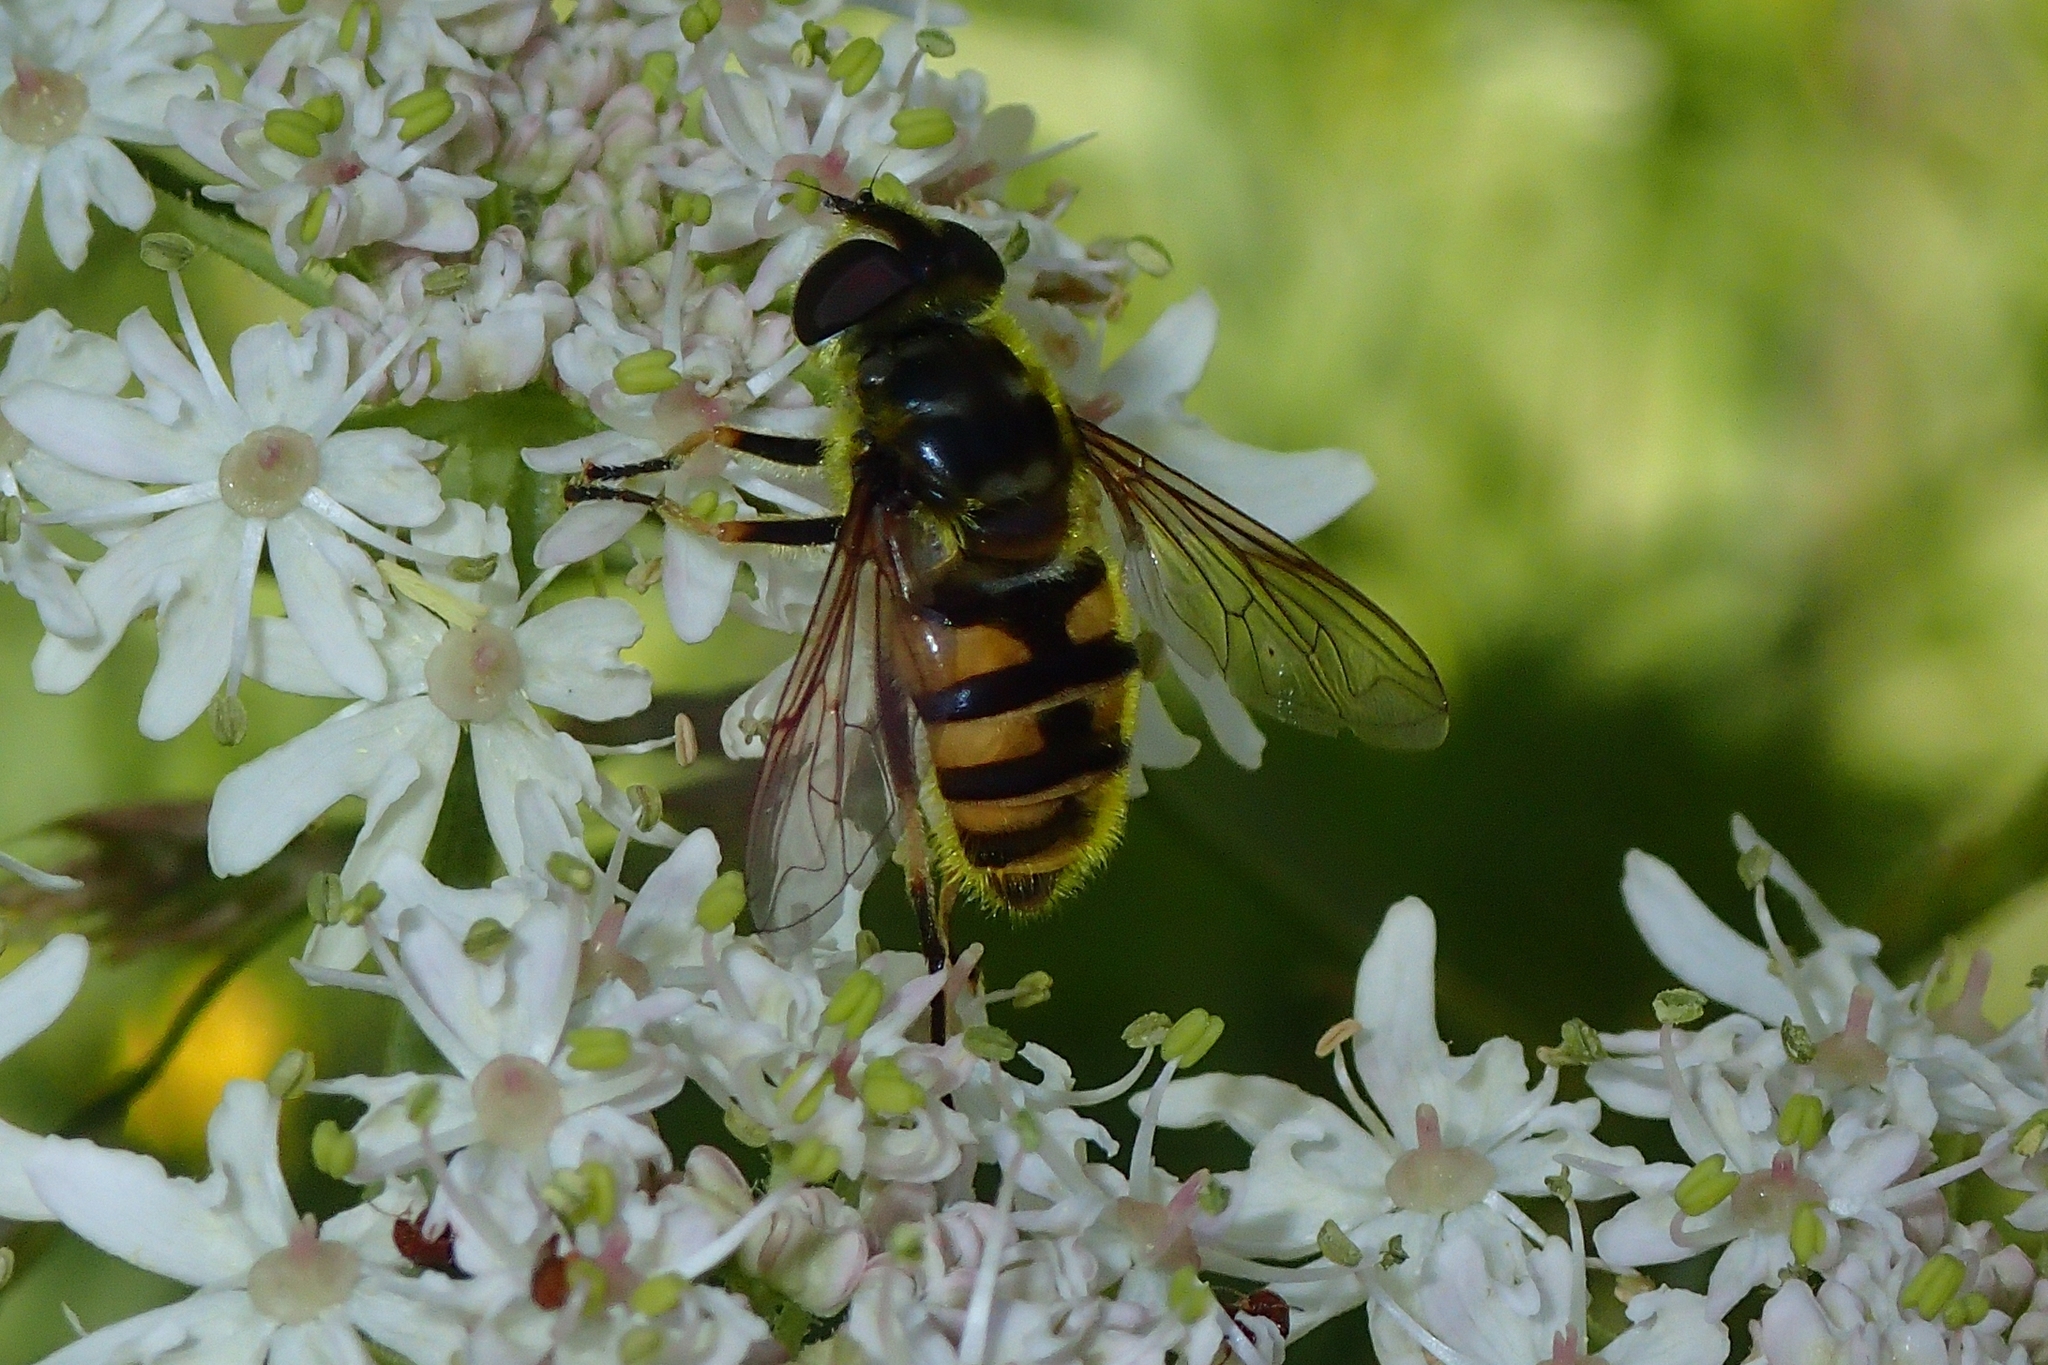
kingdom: Animalia
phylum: Arthropoda
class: Insecta
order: Diptera
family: Syrphidae
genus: Myathropa
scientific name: Myathropa florea
